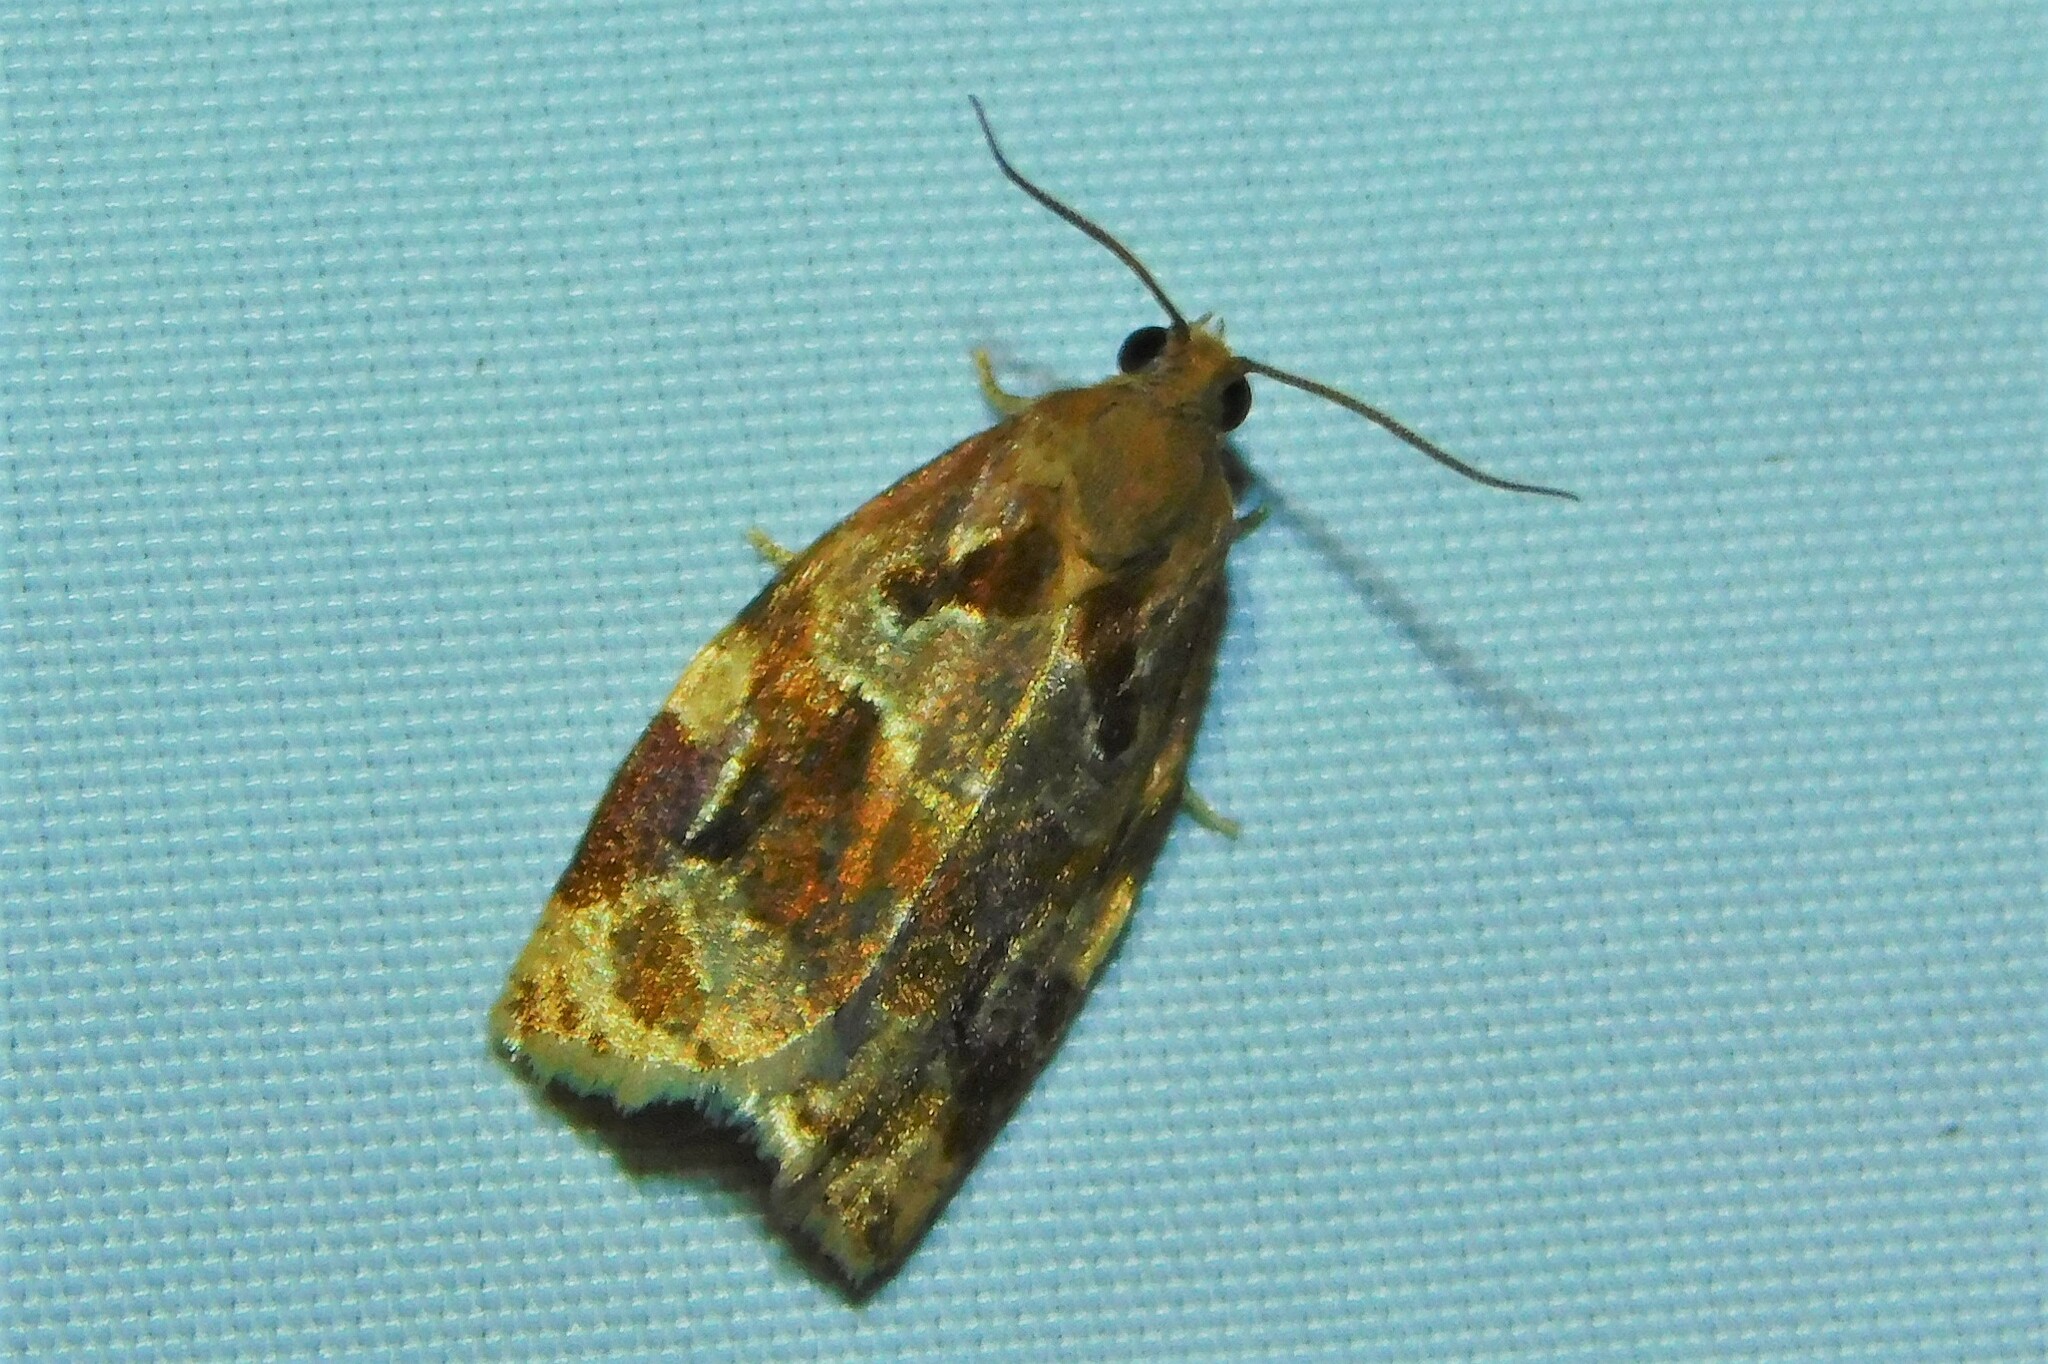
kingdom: Animalia
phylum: Arthropoda
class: Insecta
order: Lepidoptera
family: Tortricidae
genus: Archips
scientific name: Archips xylosteana
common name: Variegated golden tortrix
